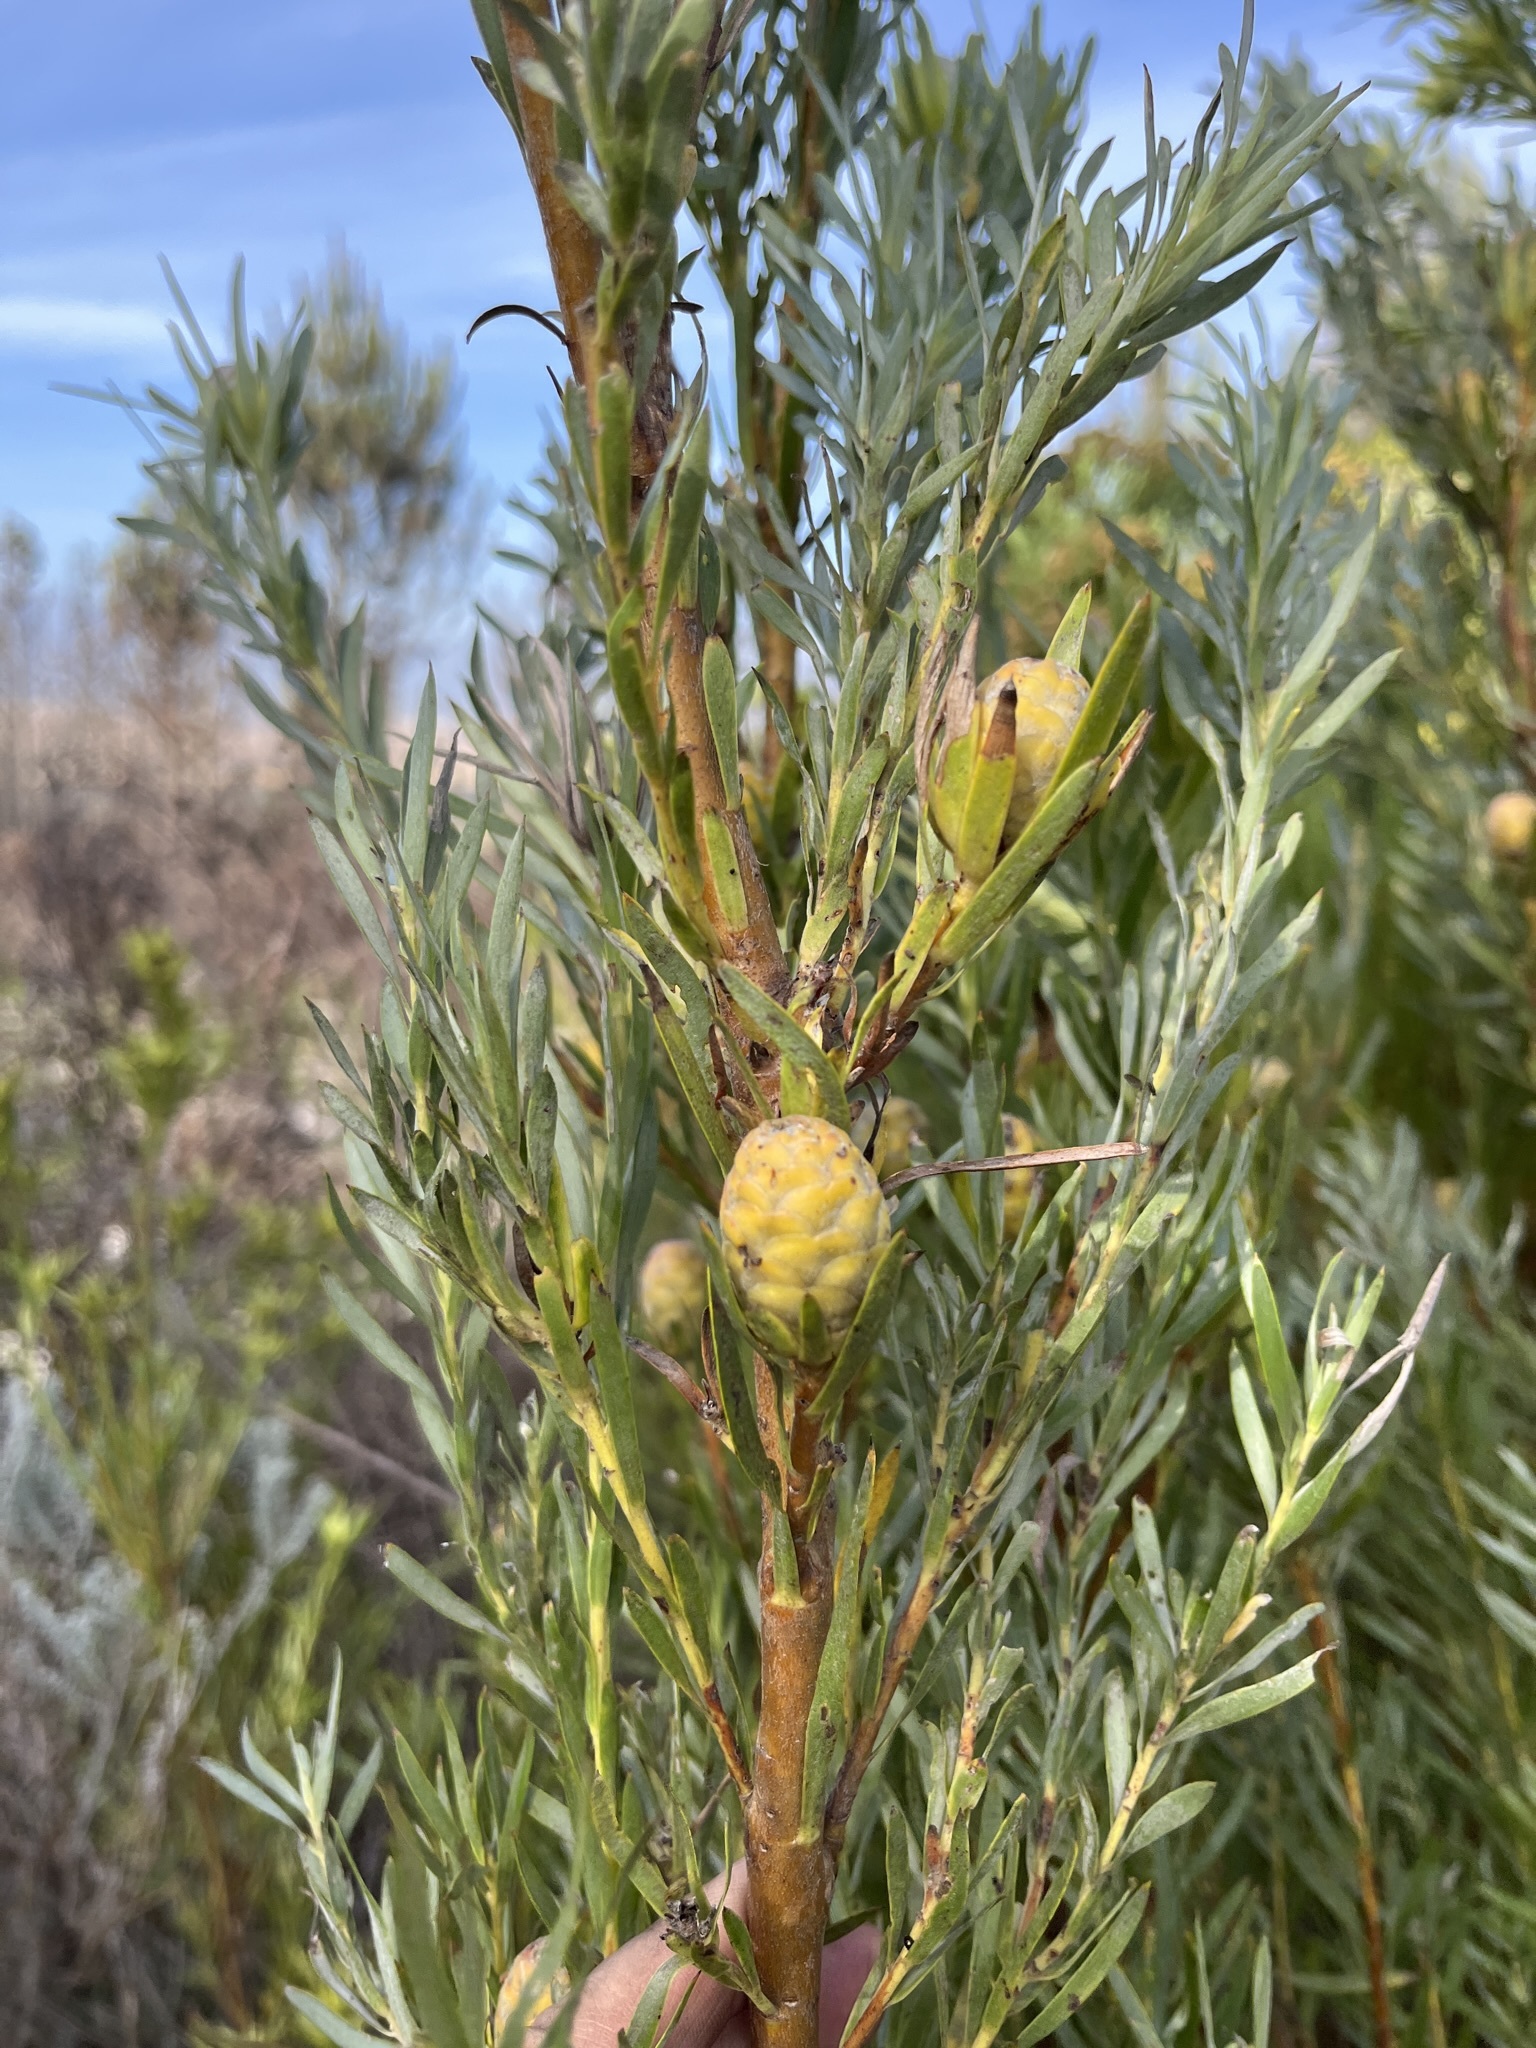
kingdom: Plantae
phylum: Tracheophyta
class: Magnoliopsida
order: Proteales
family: Proteaceae
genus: Leucadendron
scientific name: Leucadendron xanthoconus
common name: Sickle-leaf conebush
